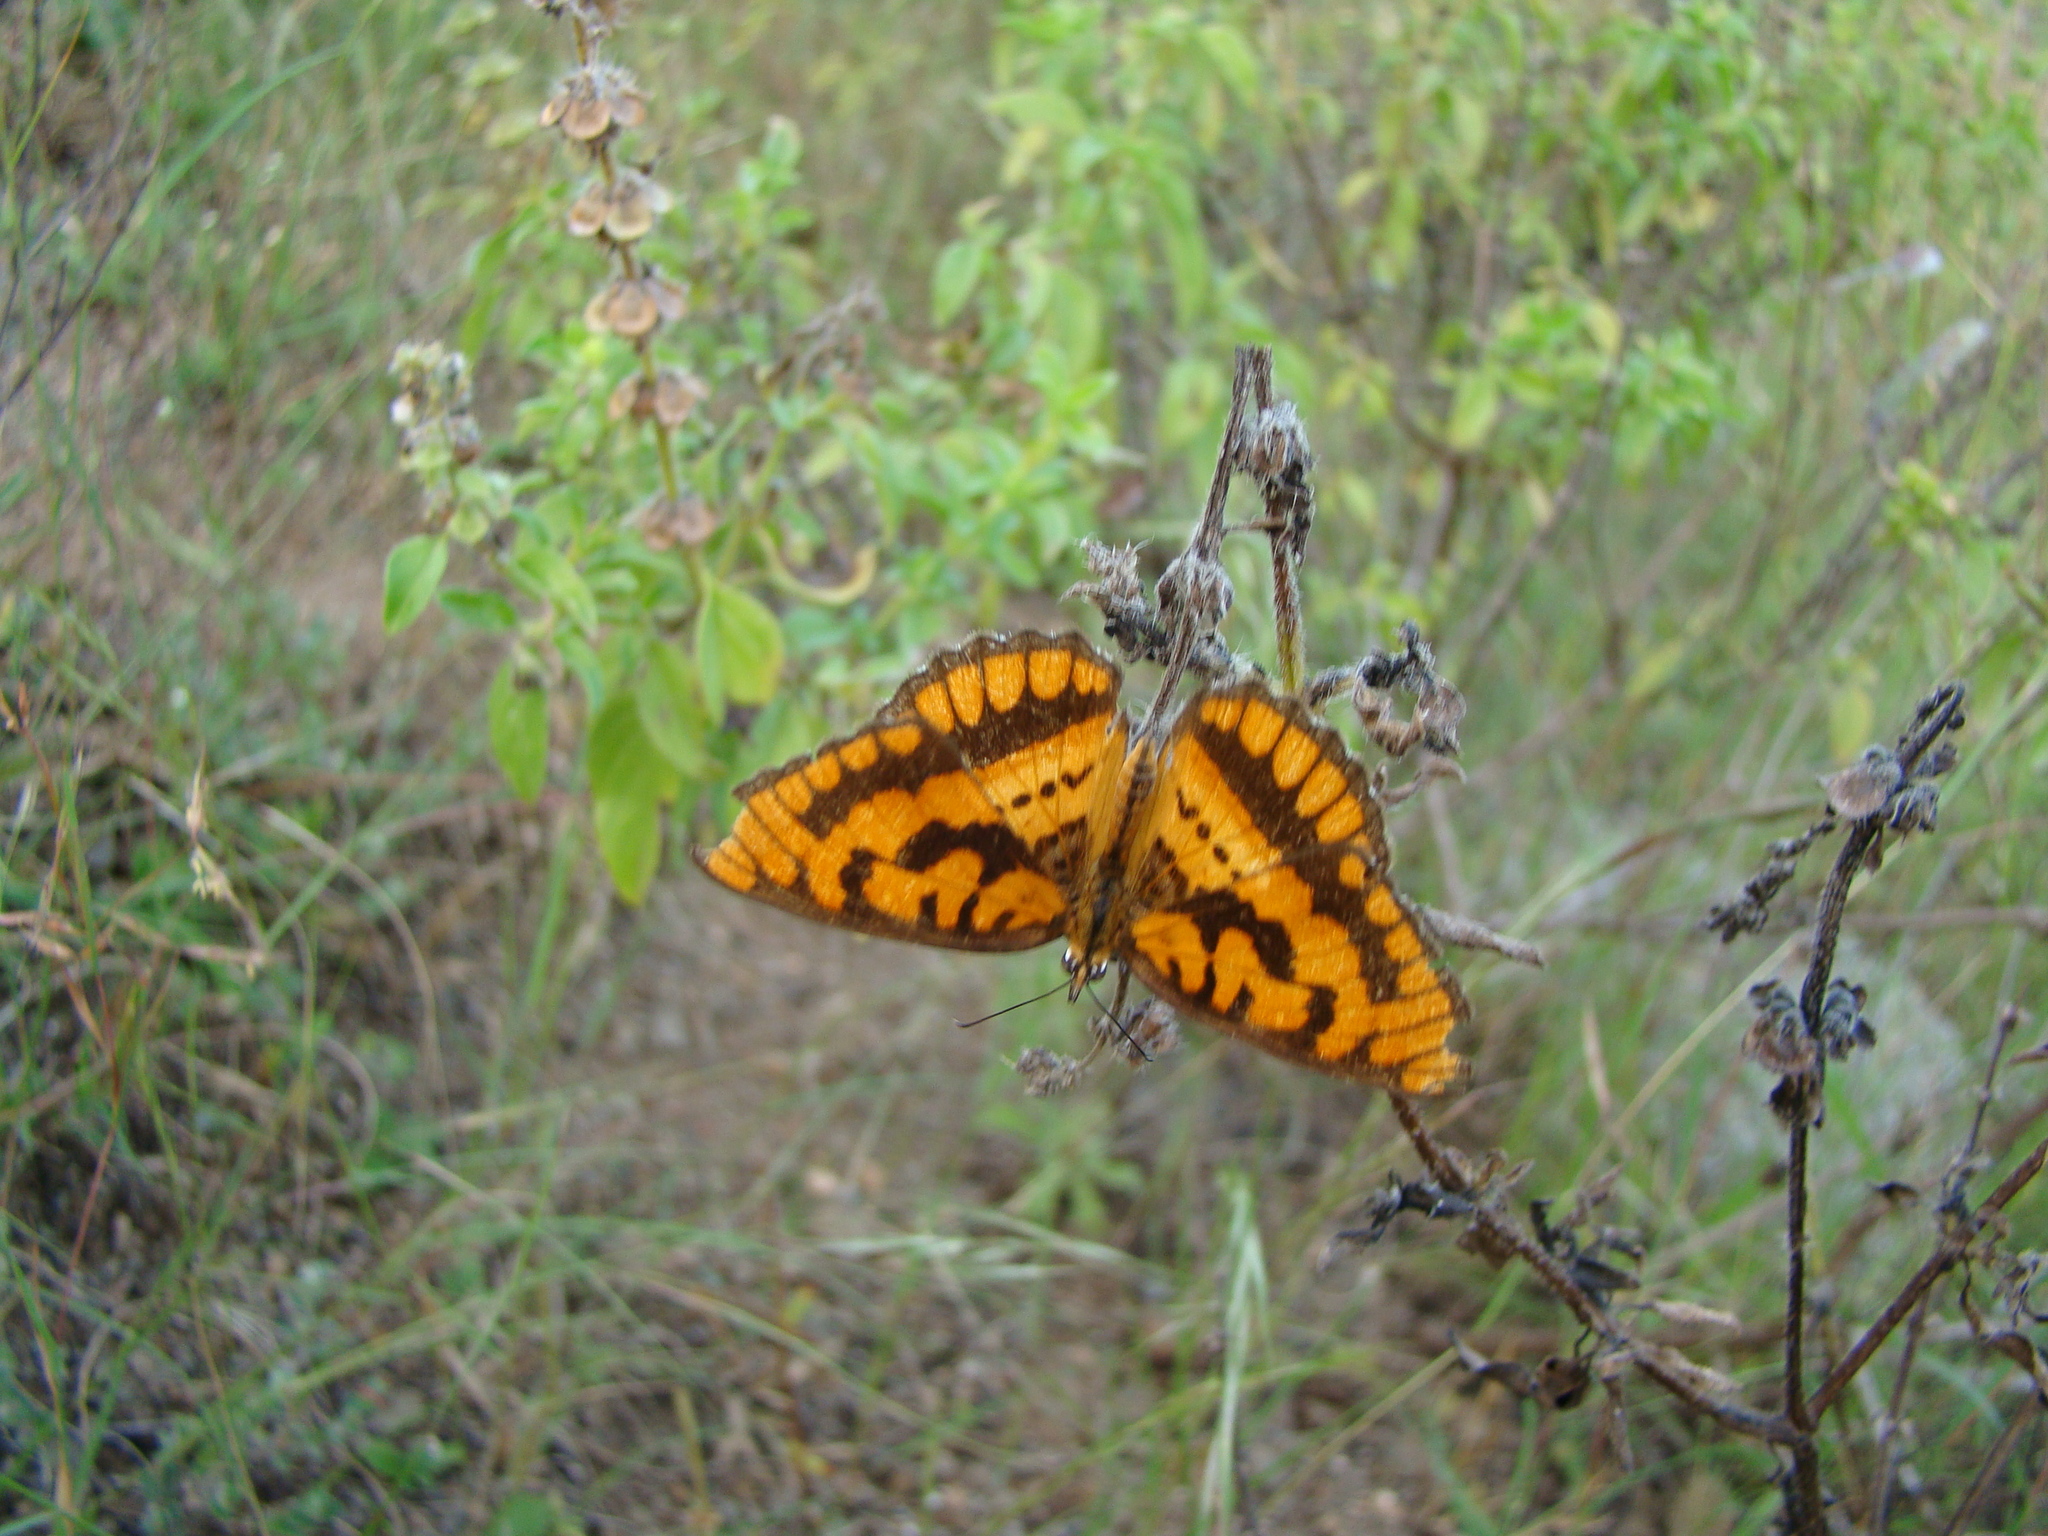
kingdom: Animalia
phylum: Arthropoda
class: Insecta
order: Lepidoptera
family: Nymphalidae
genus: Byblia
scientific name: Byblia ilithyia
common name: Spotted joker
